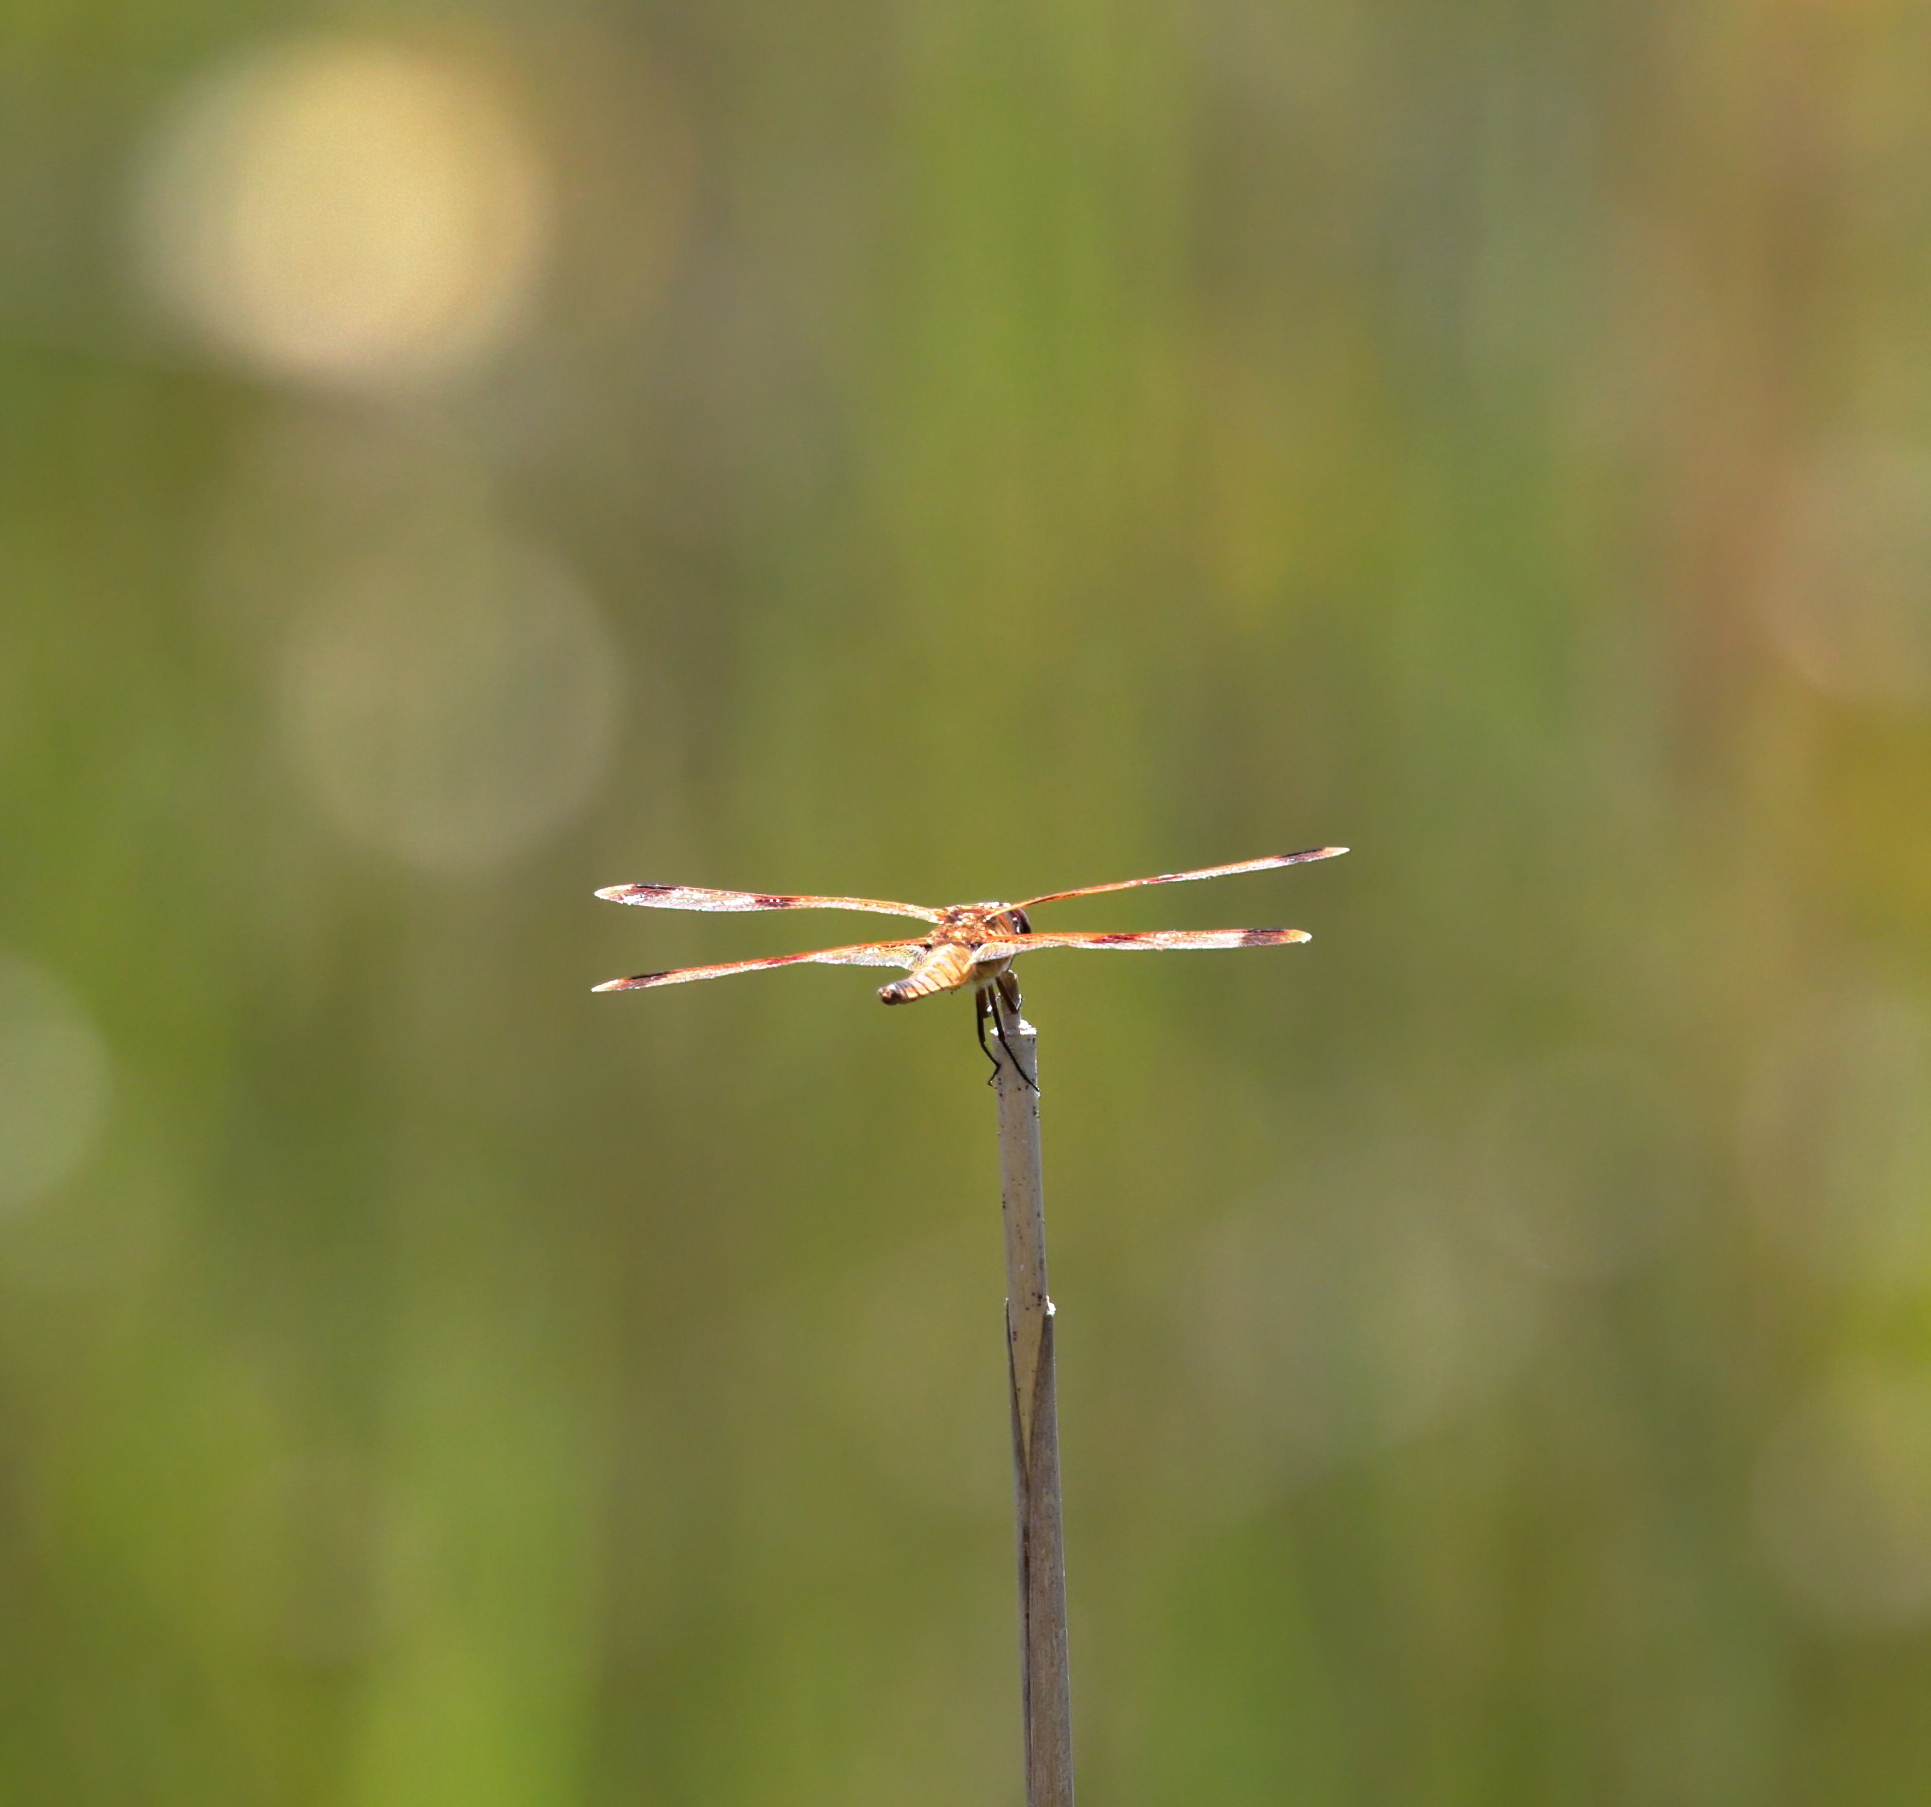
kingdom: Animalia
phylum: Arthropoda
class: Insecta
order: Odonata
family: Libellulidae
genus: Libellula
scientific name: Libellula semifasciata
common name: Painted skimmer
